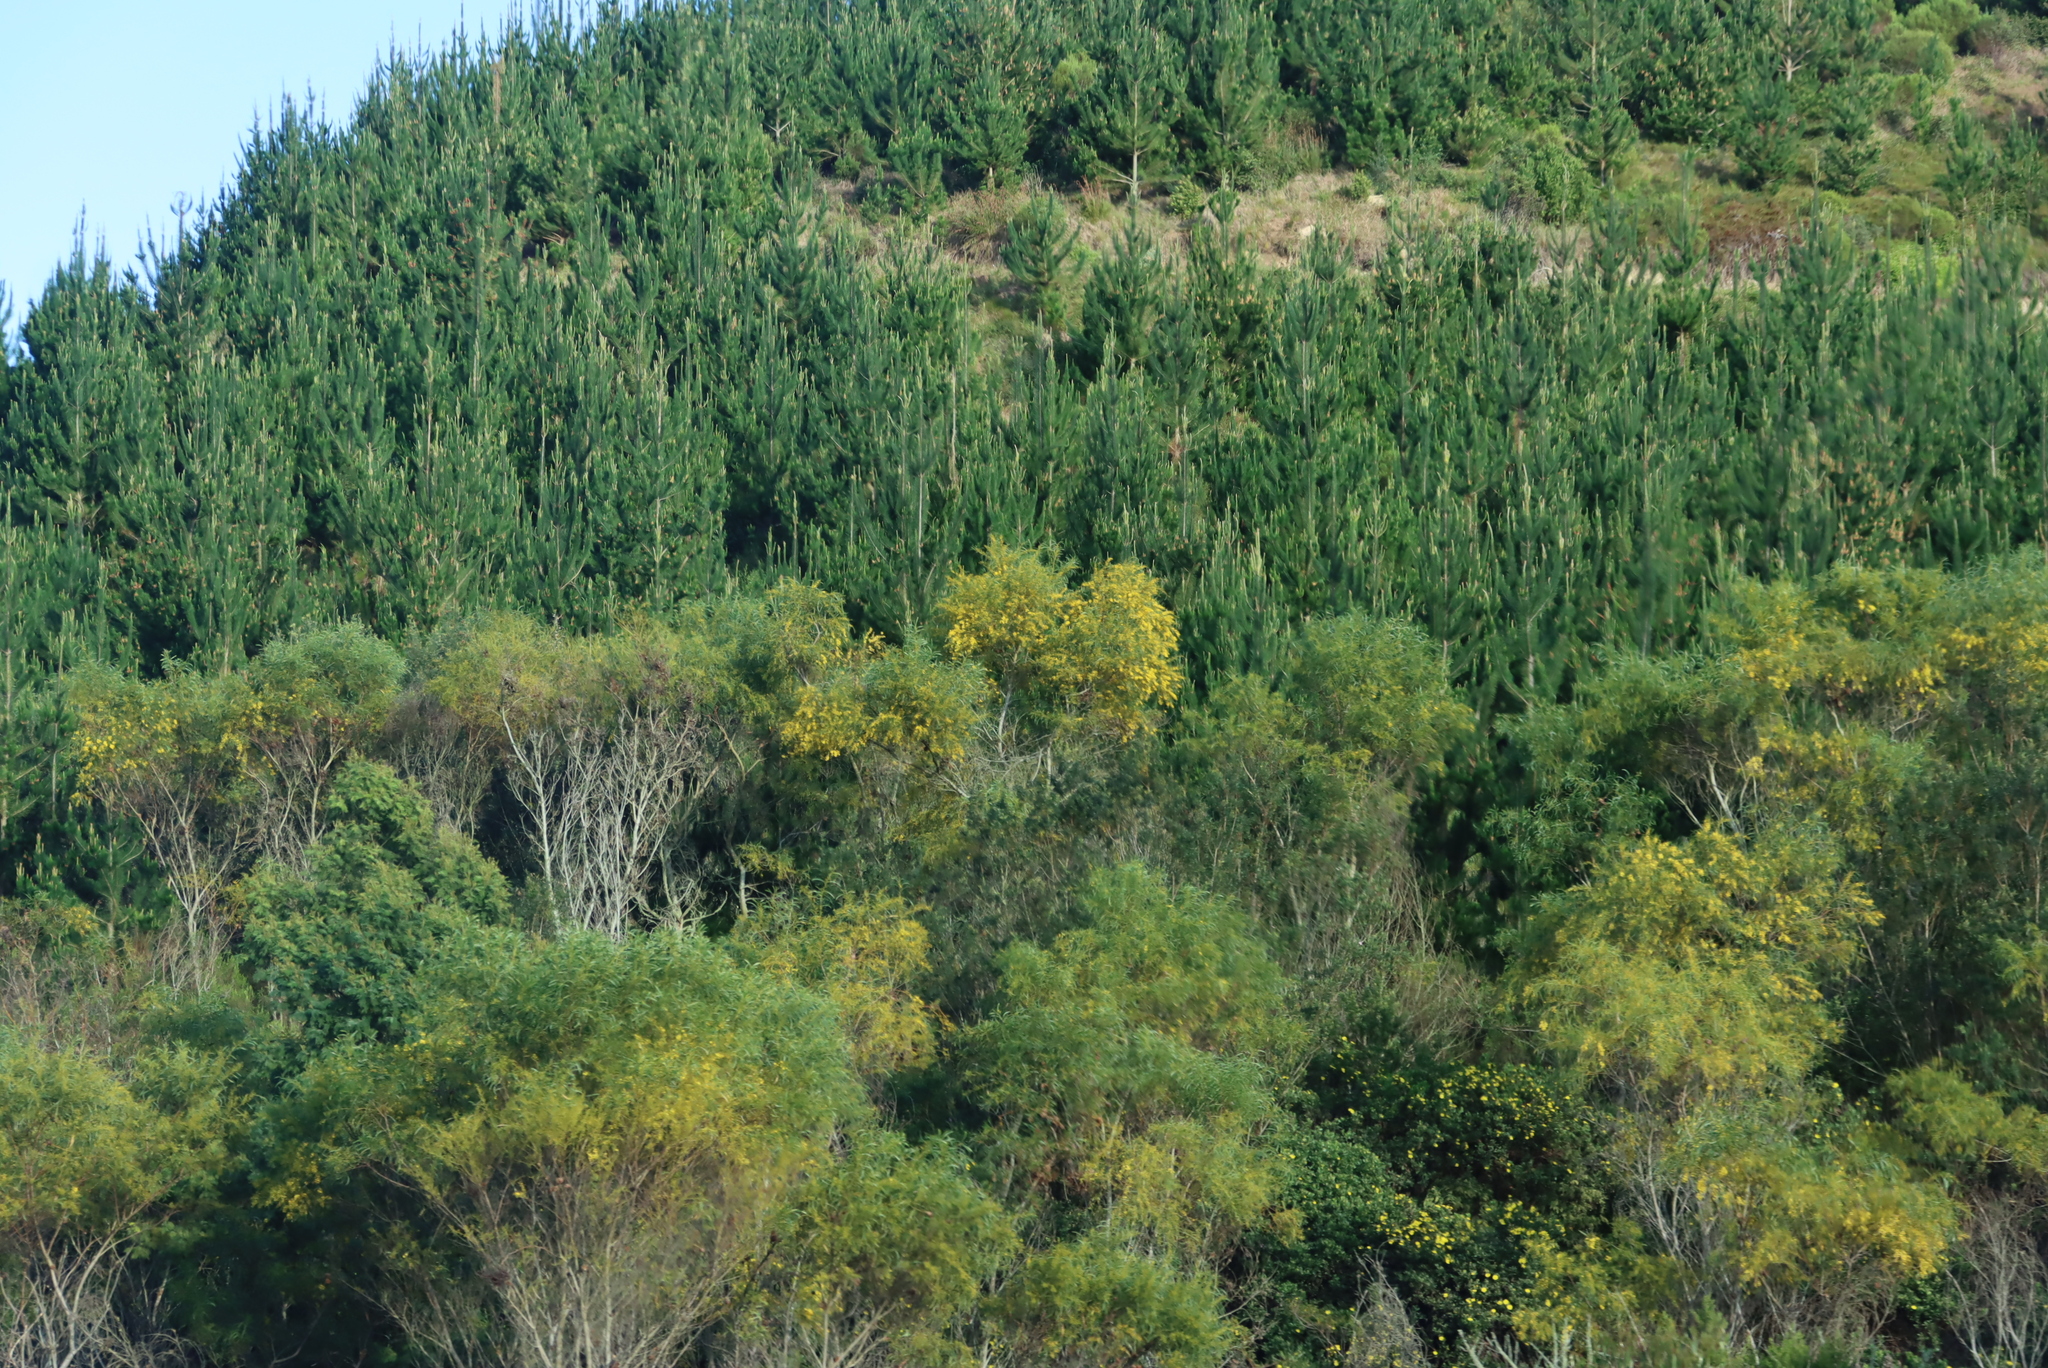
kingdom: Plantae
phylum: Tracheophyta
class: Magnoliopsida
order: Fabales
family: Fabaceae
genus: Acacia
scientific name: Acacia saligna
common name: Orange wattle
